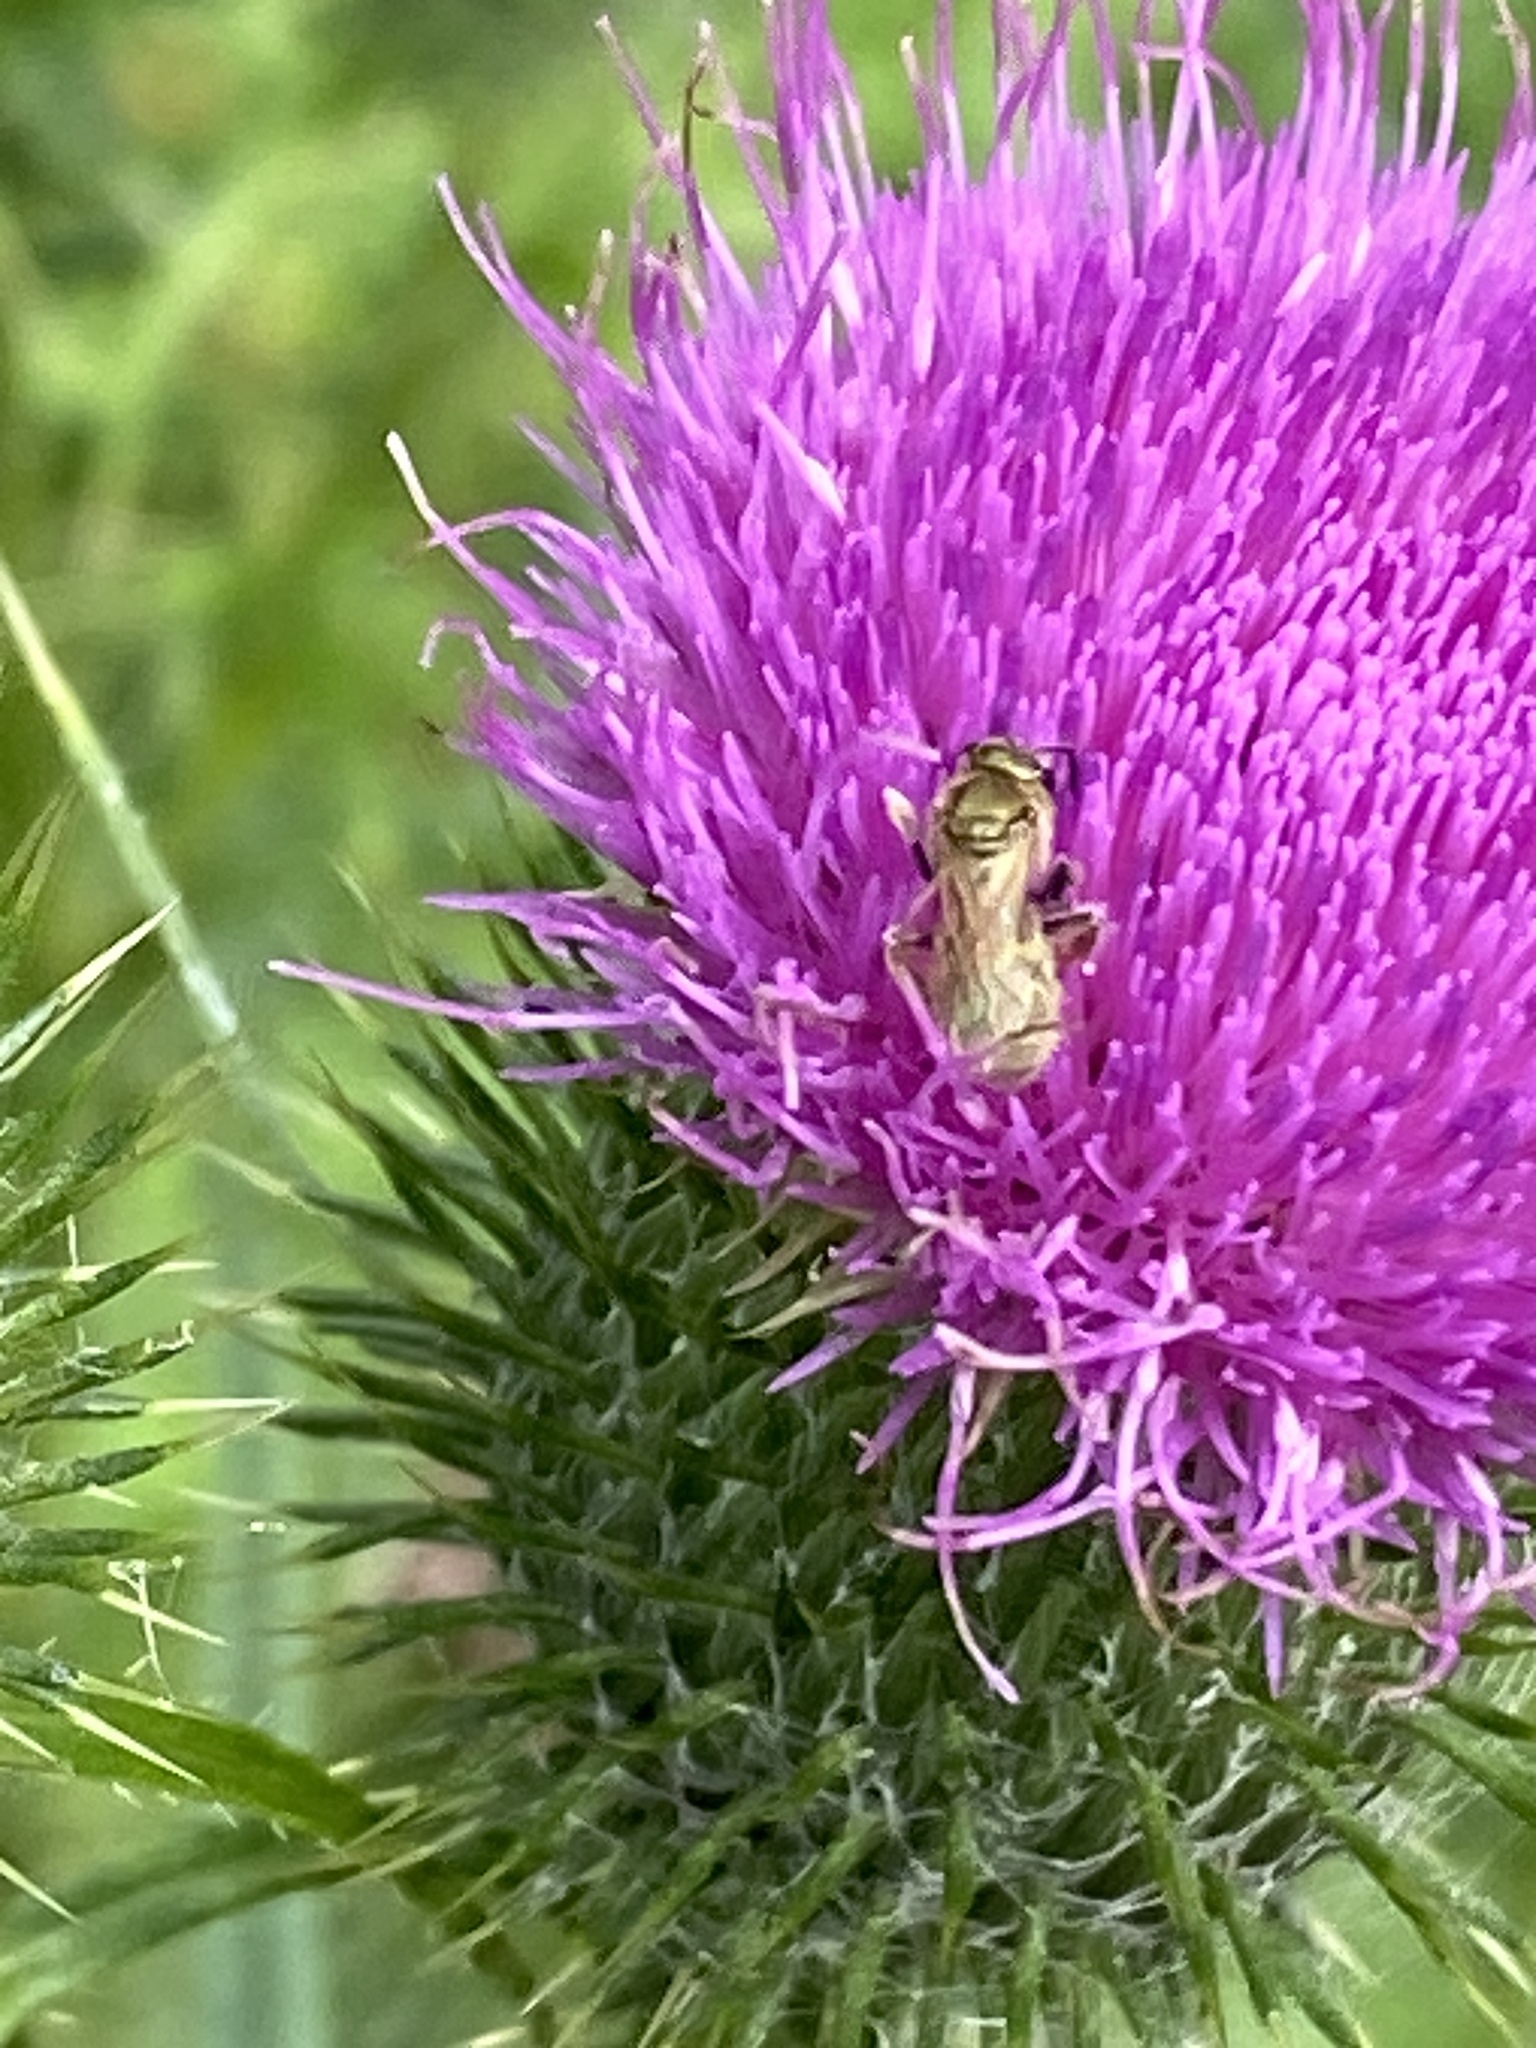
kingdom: Plantae
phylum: Tracheophyta
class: Magnoliopsida
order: Asterales
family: Asteraceae
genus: Cirsium
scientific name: Cirsium vulgare
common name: Bull thistle
